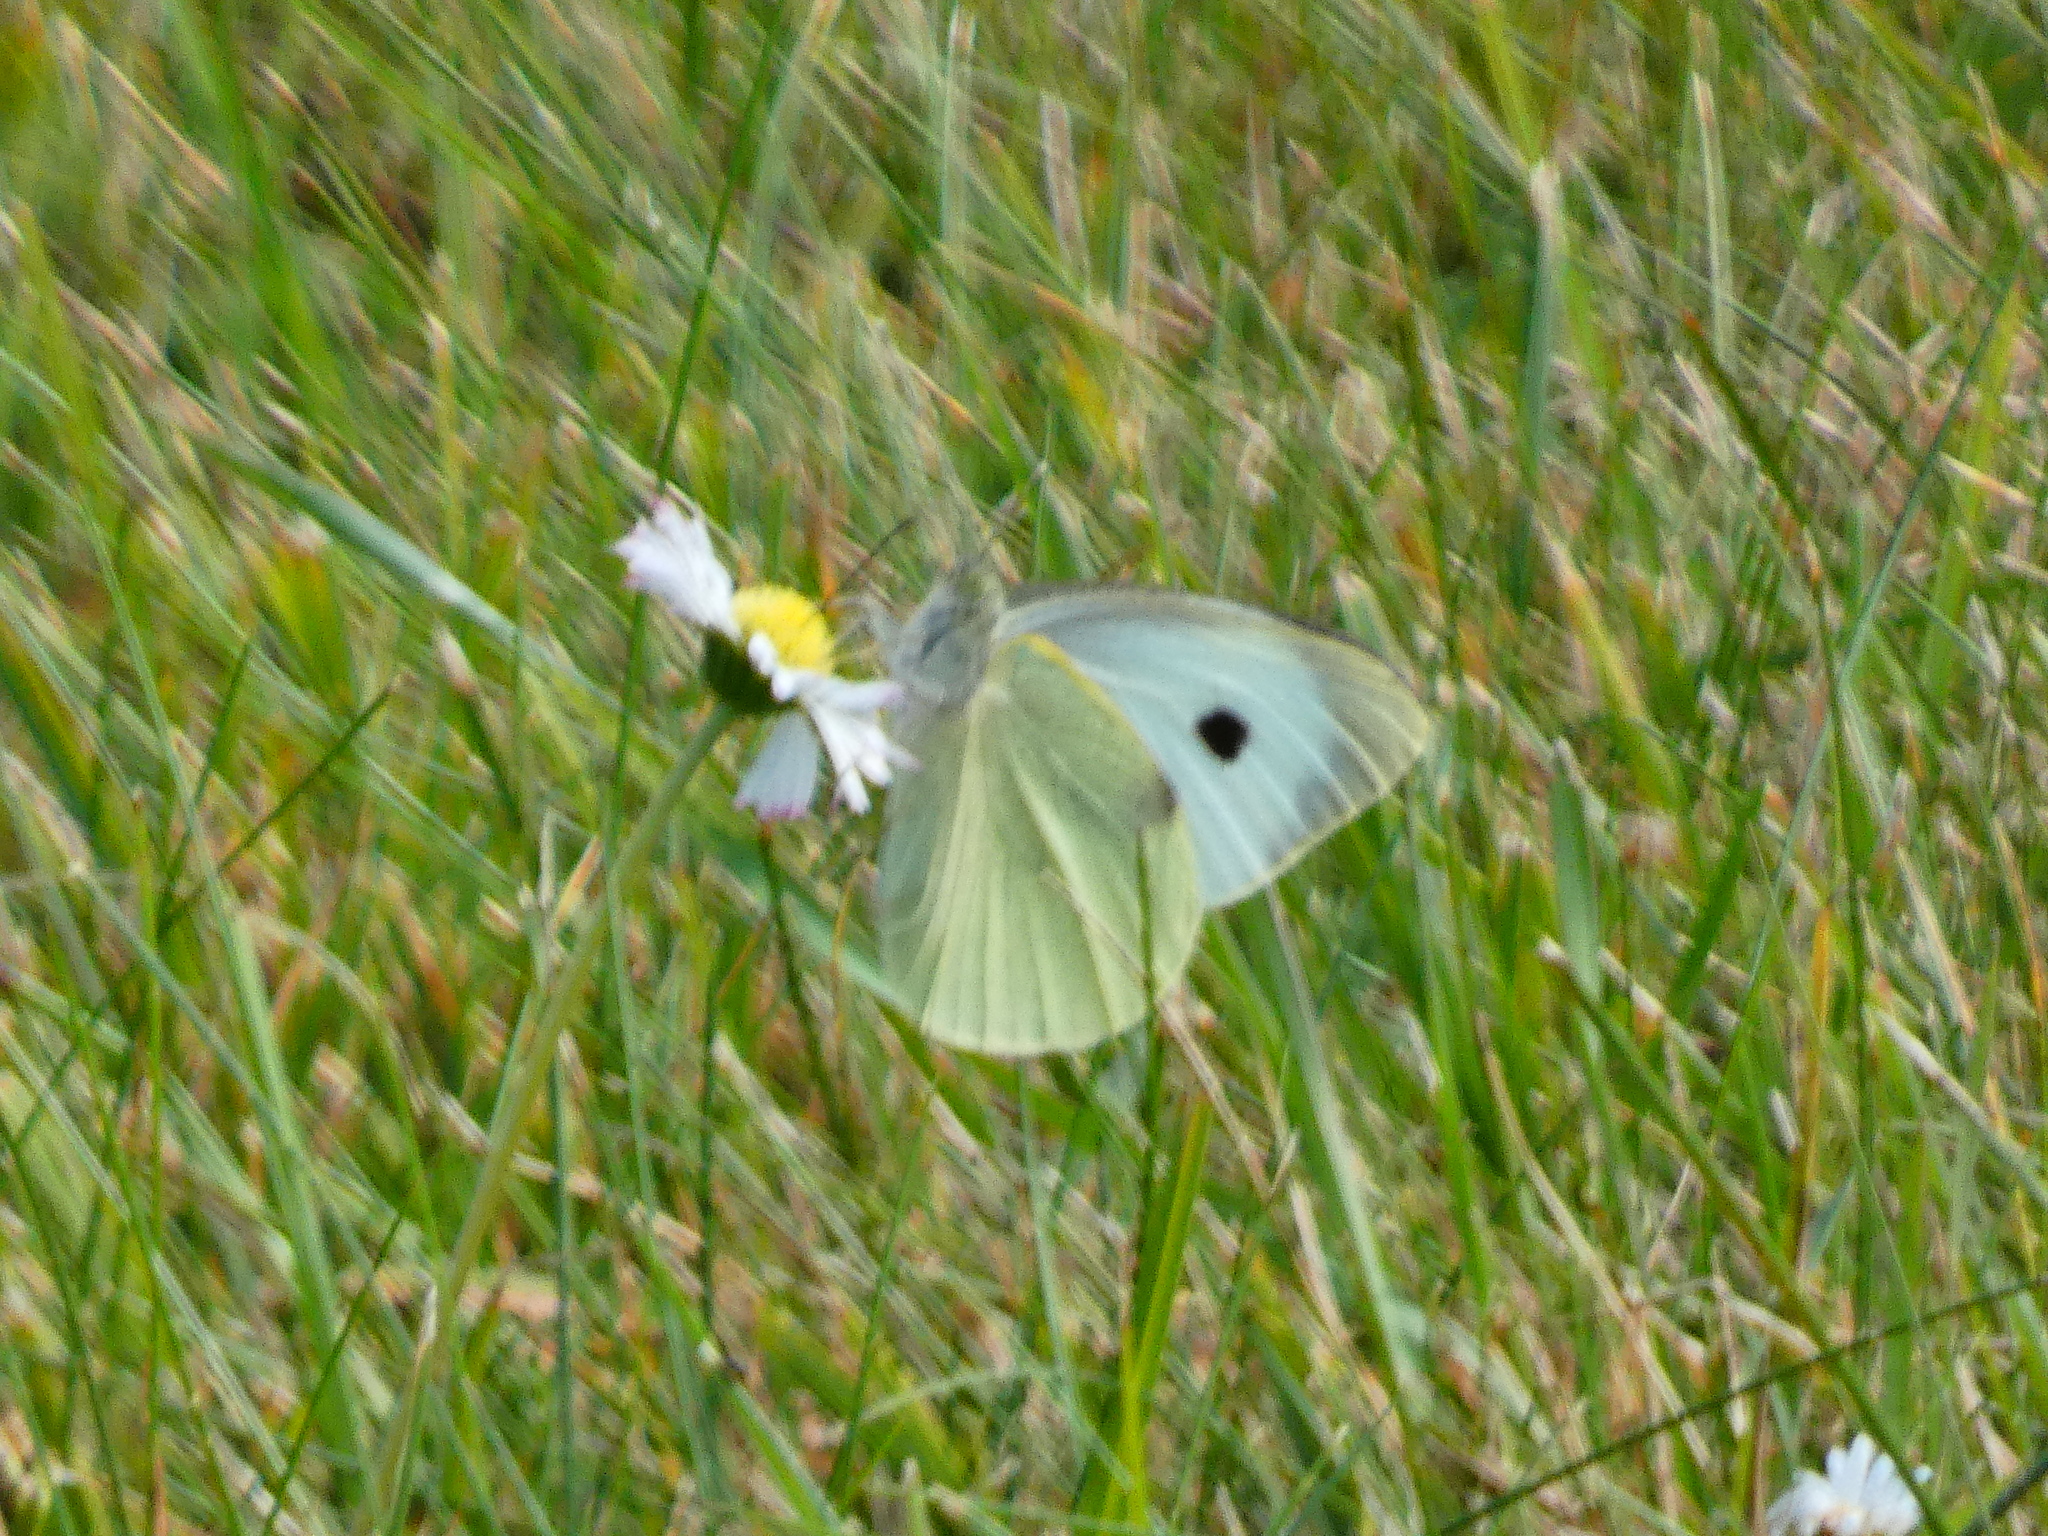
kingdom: Animalia
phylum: Arthropoda
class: Insecta
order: Lepidoptera
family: Pieridae
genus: Pieris
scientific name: Pieris brassicae
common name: Large white
